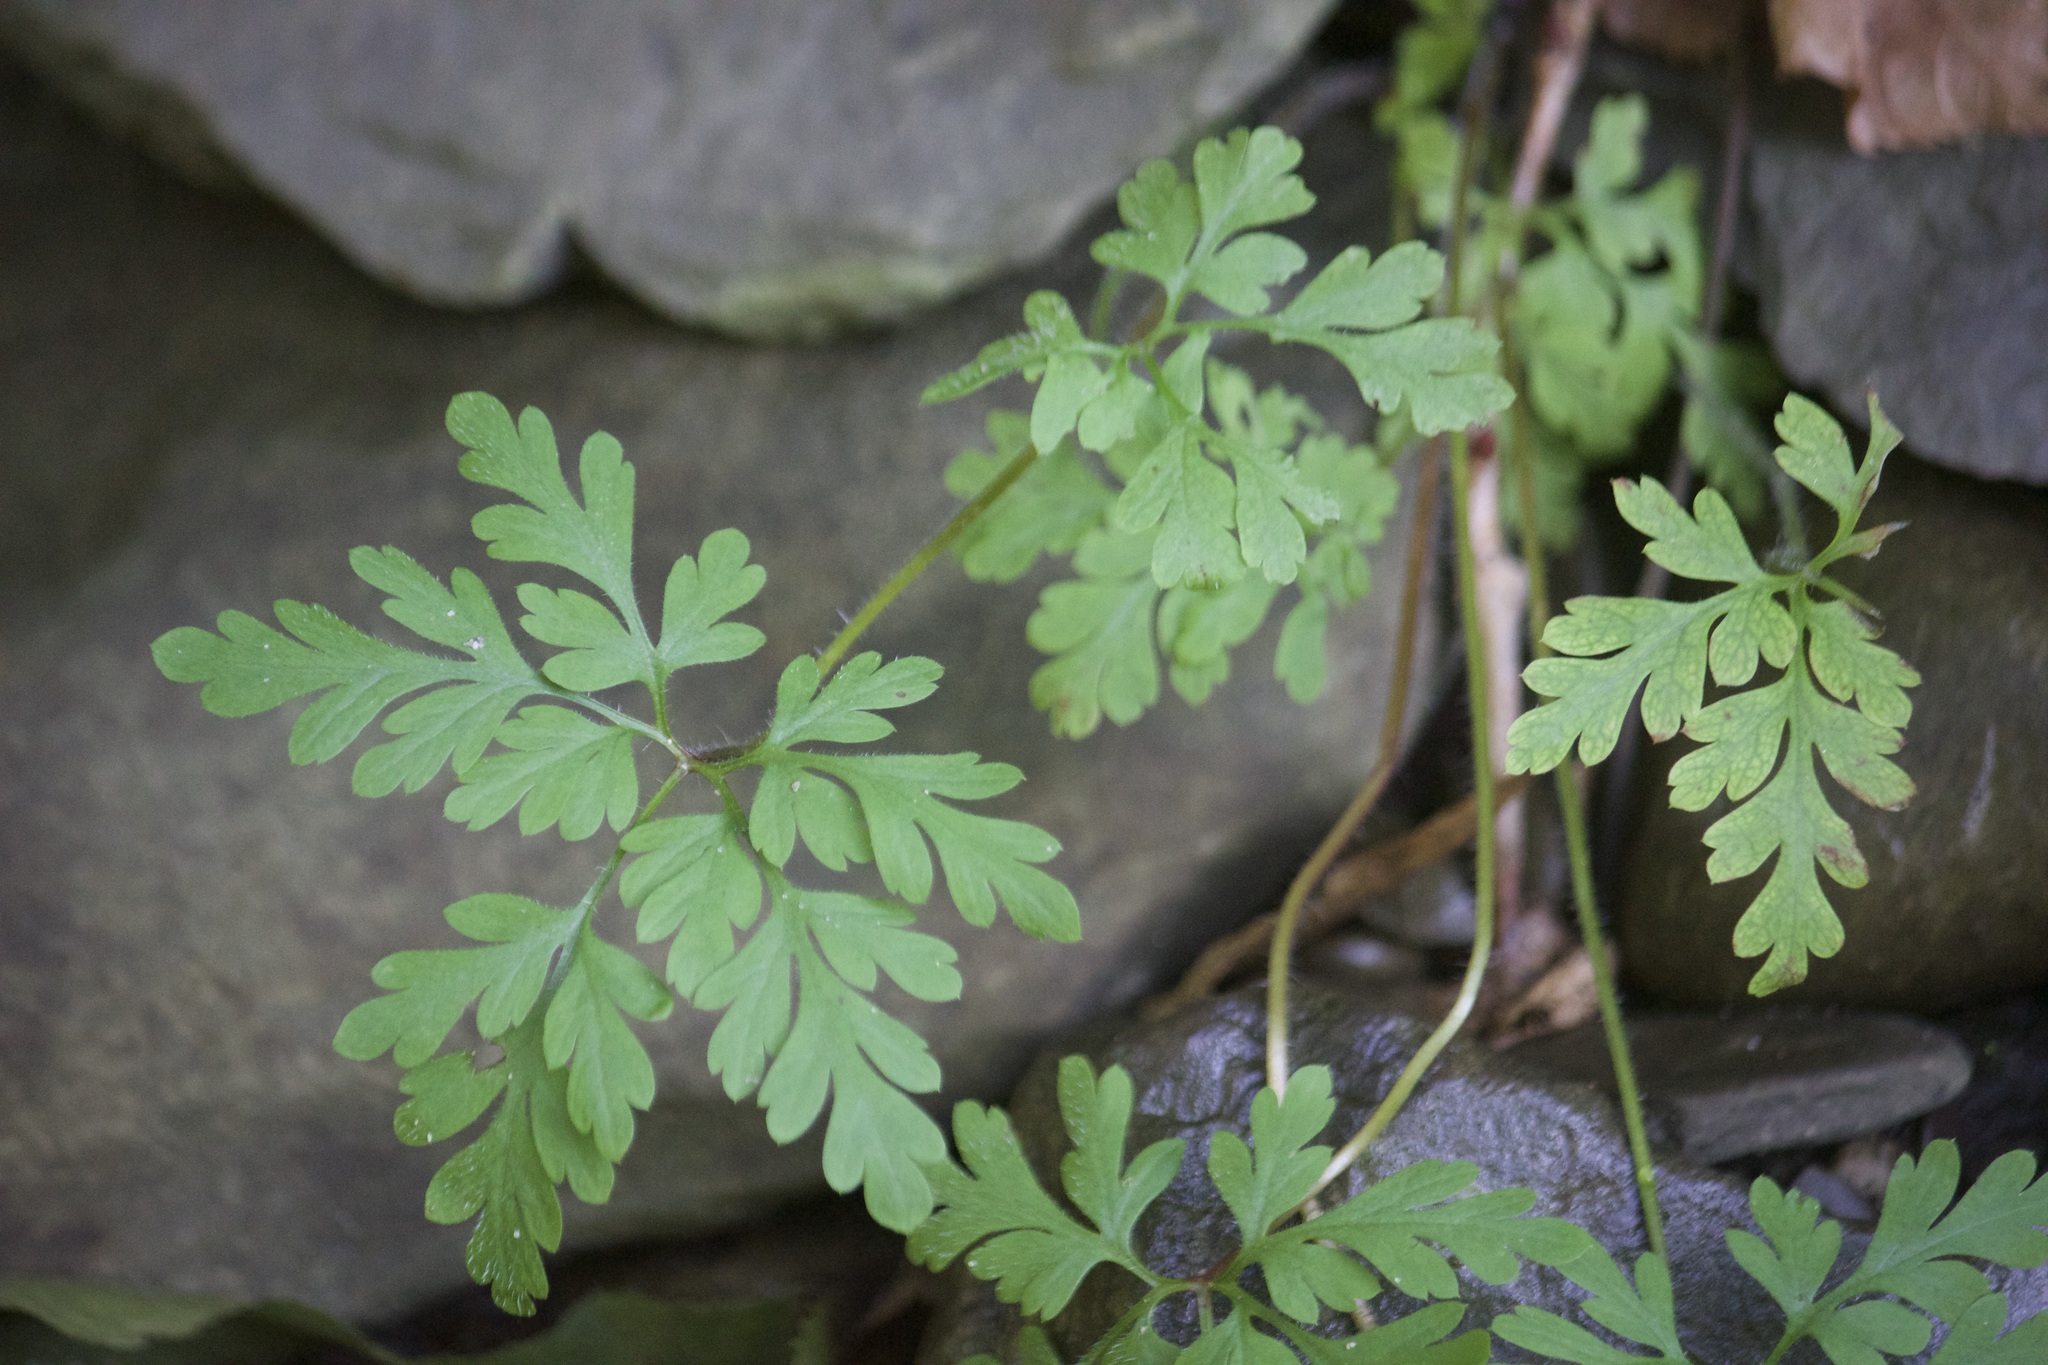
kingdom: Plantae
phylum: Tracheophyta
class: Magnoliopsida
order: Geraniales
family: Geraniaceae
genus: Geranium
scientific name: Geranium robertianum
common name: Herb-robert
